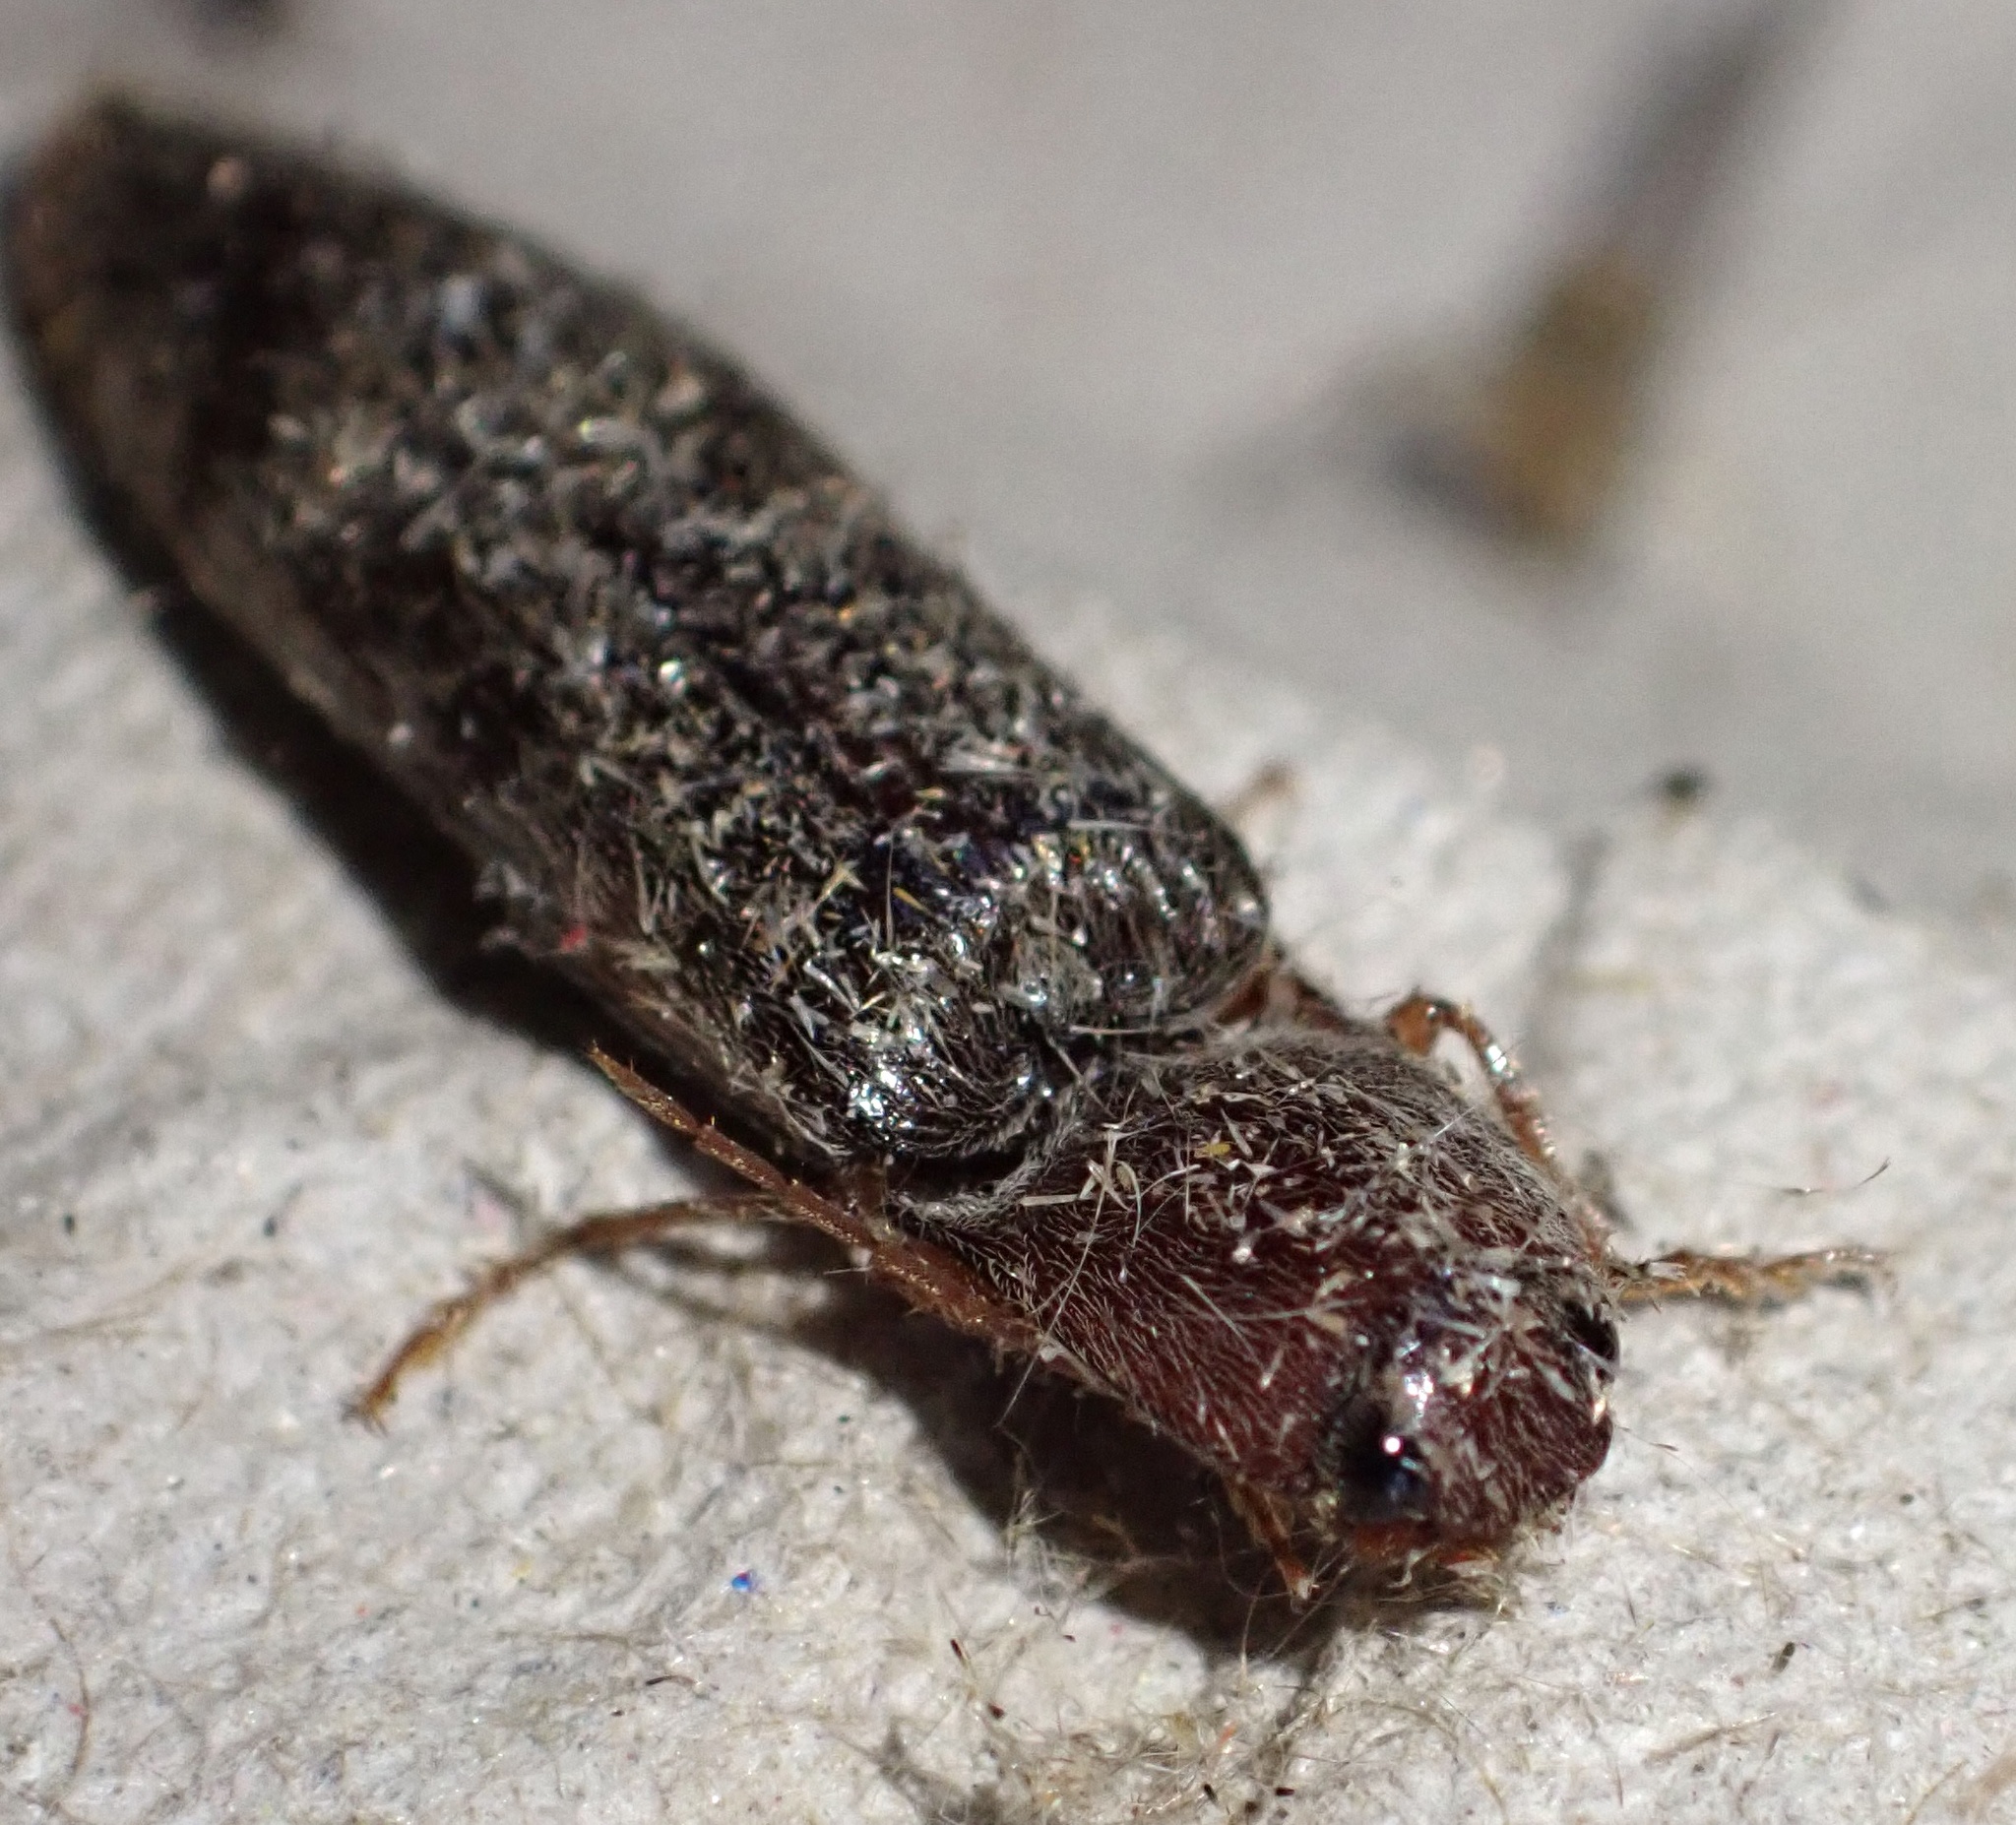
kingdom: Animalia
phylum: Arthropoda
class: Insecta
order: Coleoptera
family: Elateridae
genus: Stenagostus
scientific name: Stenagostus rhombeus
